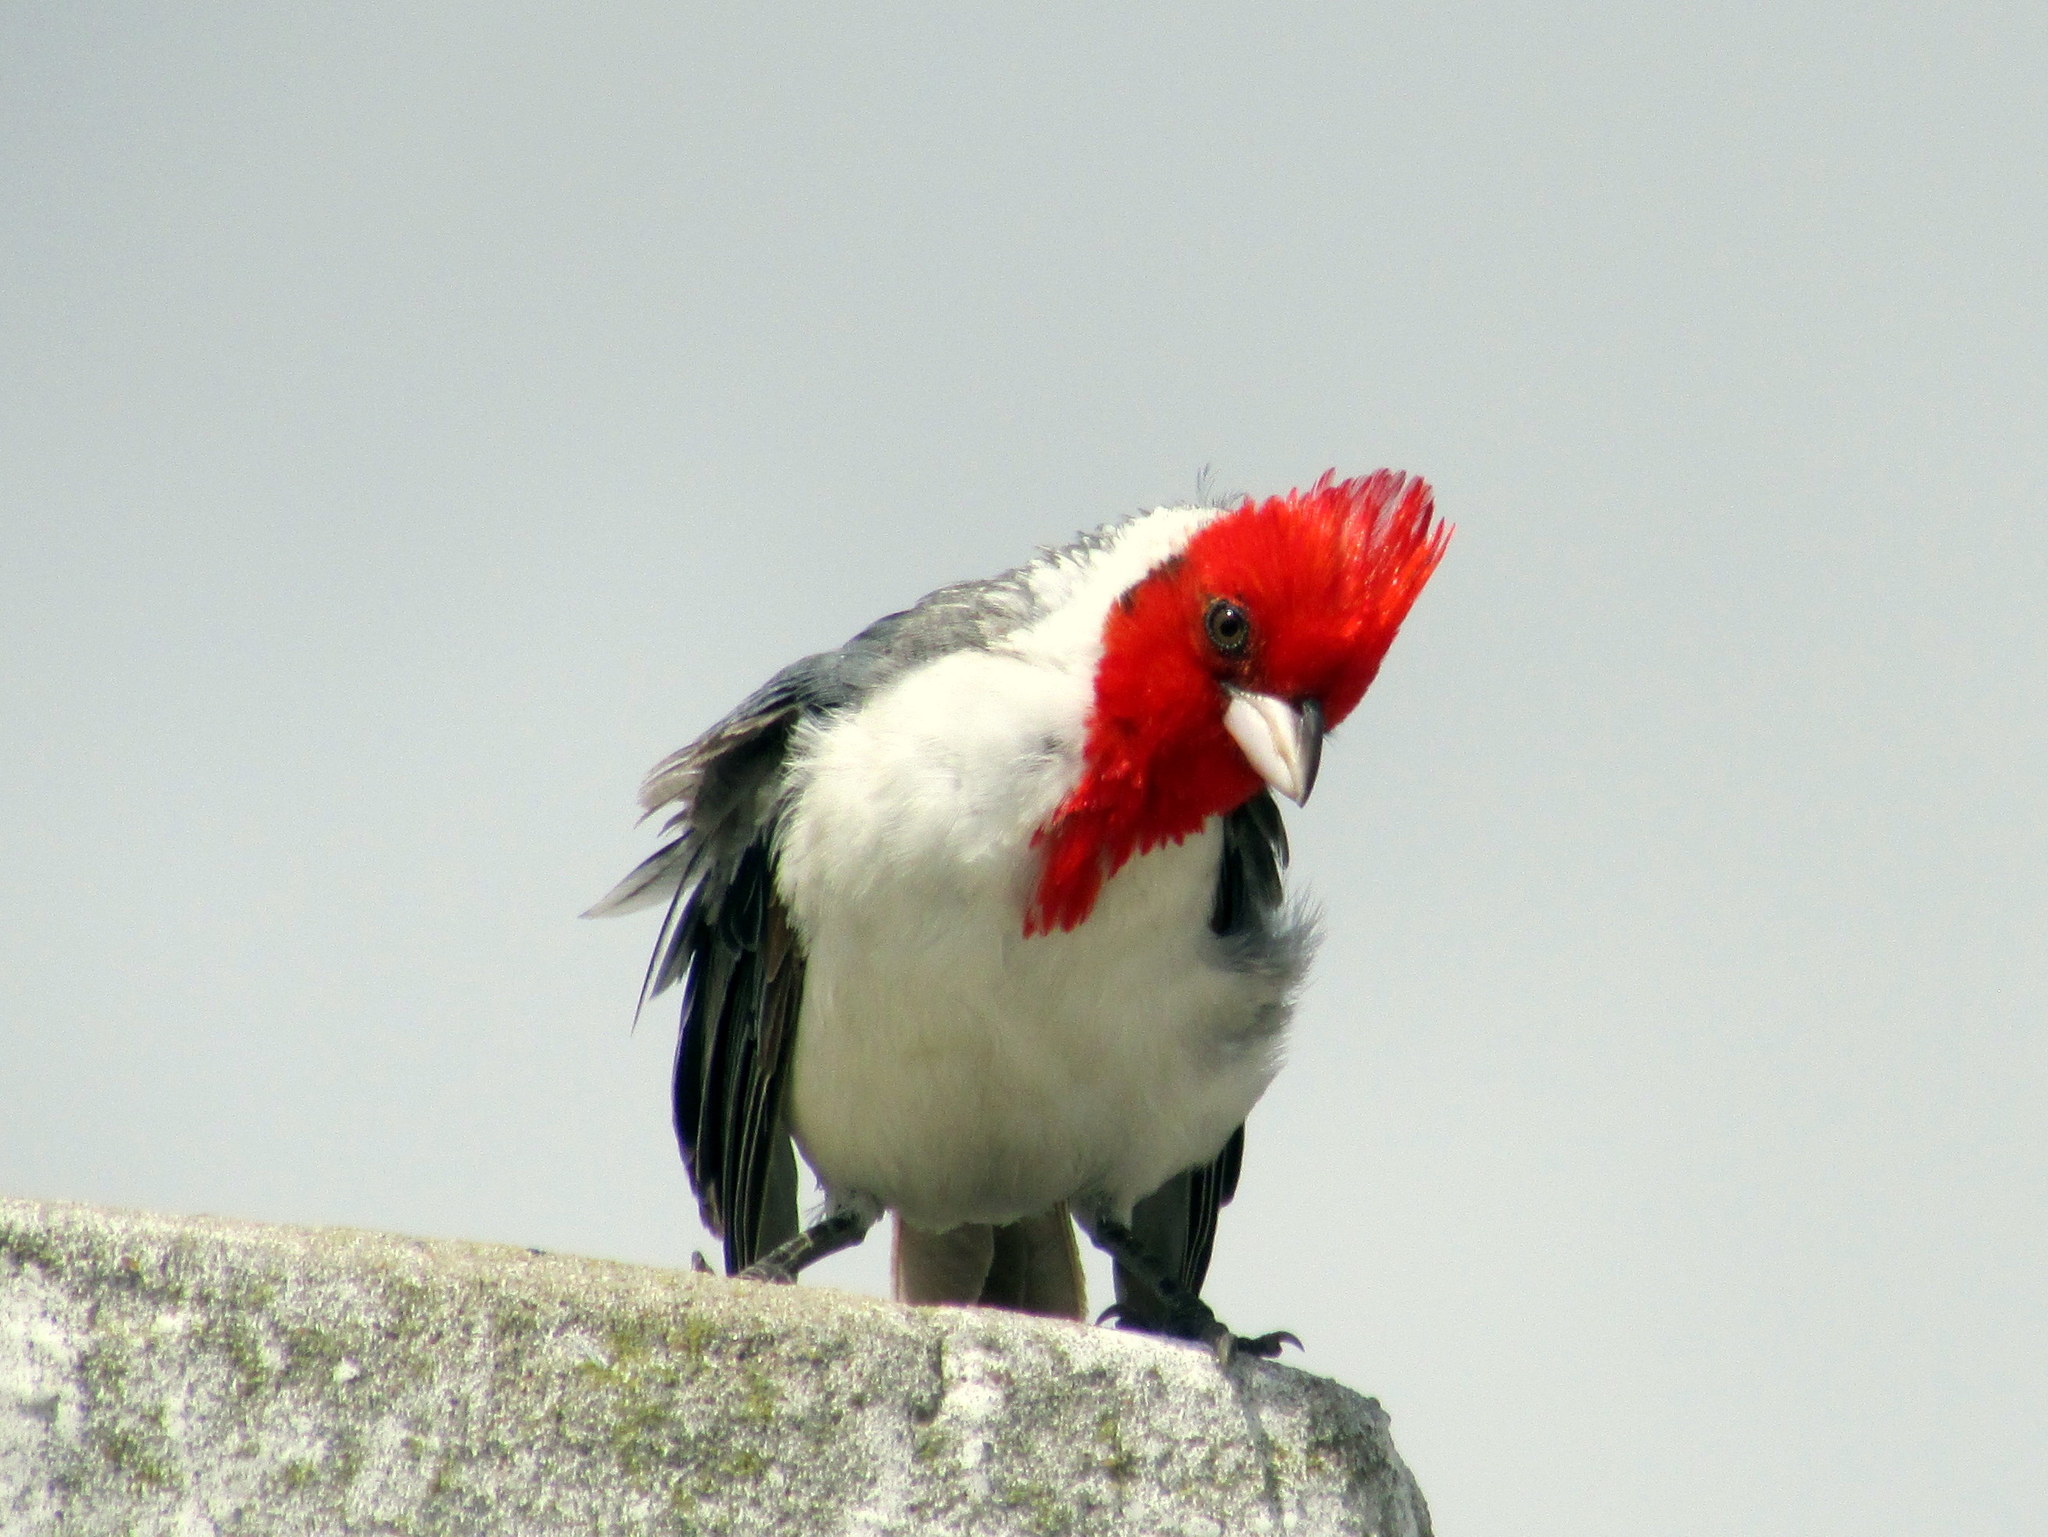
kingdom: Animalia
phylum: Chordata
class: Aves
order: Passeriformes
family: Thraupidae
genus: Paroaria
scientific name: Paroaria coronata
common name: Red-crested cardinal
